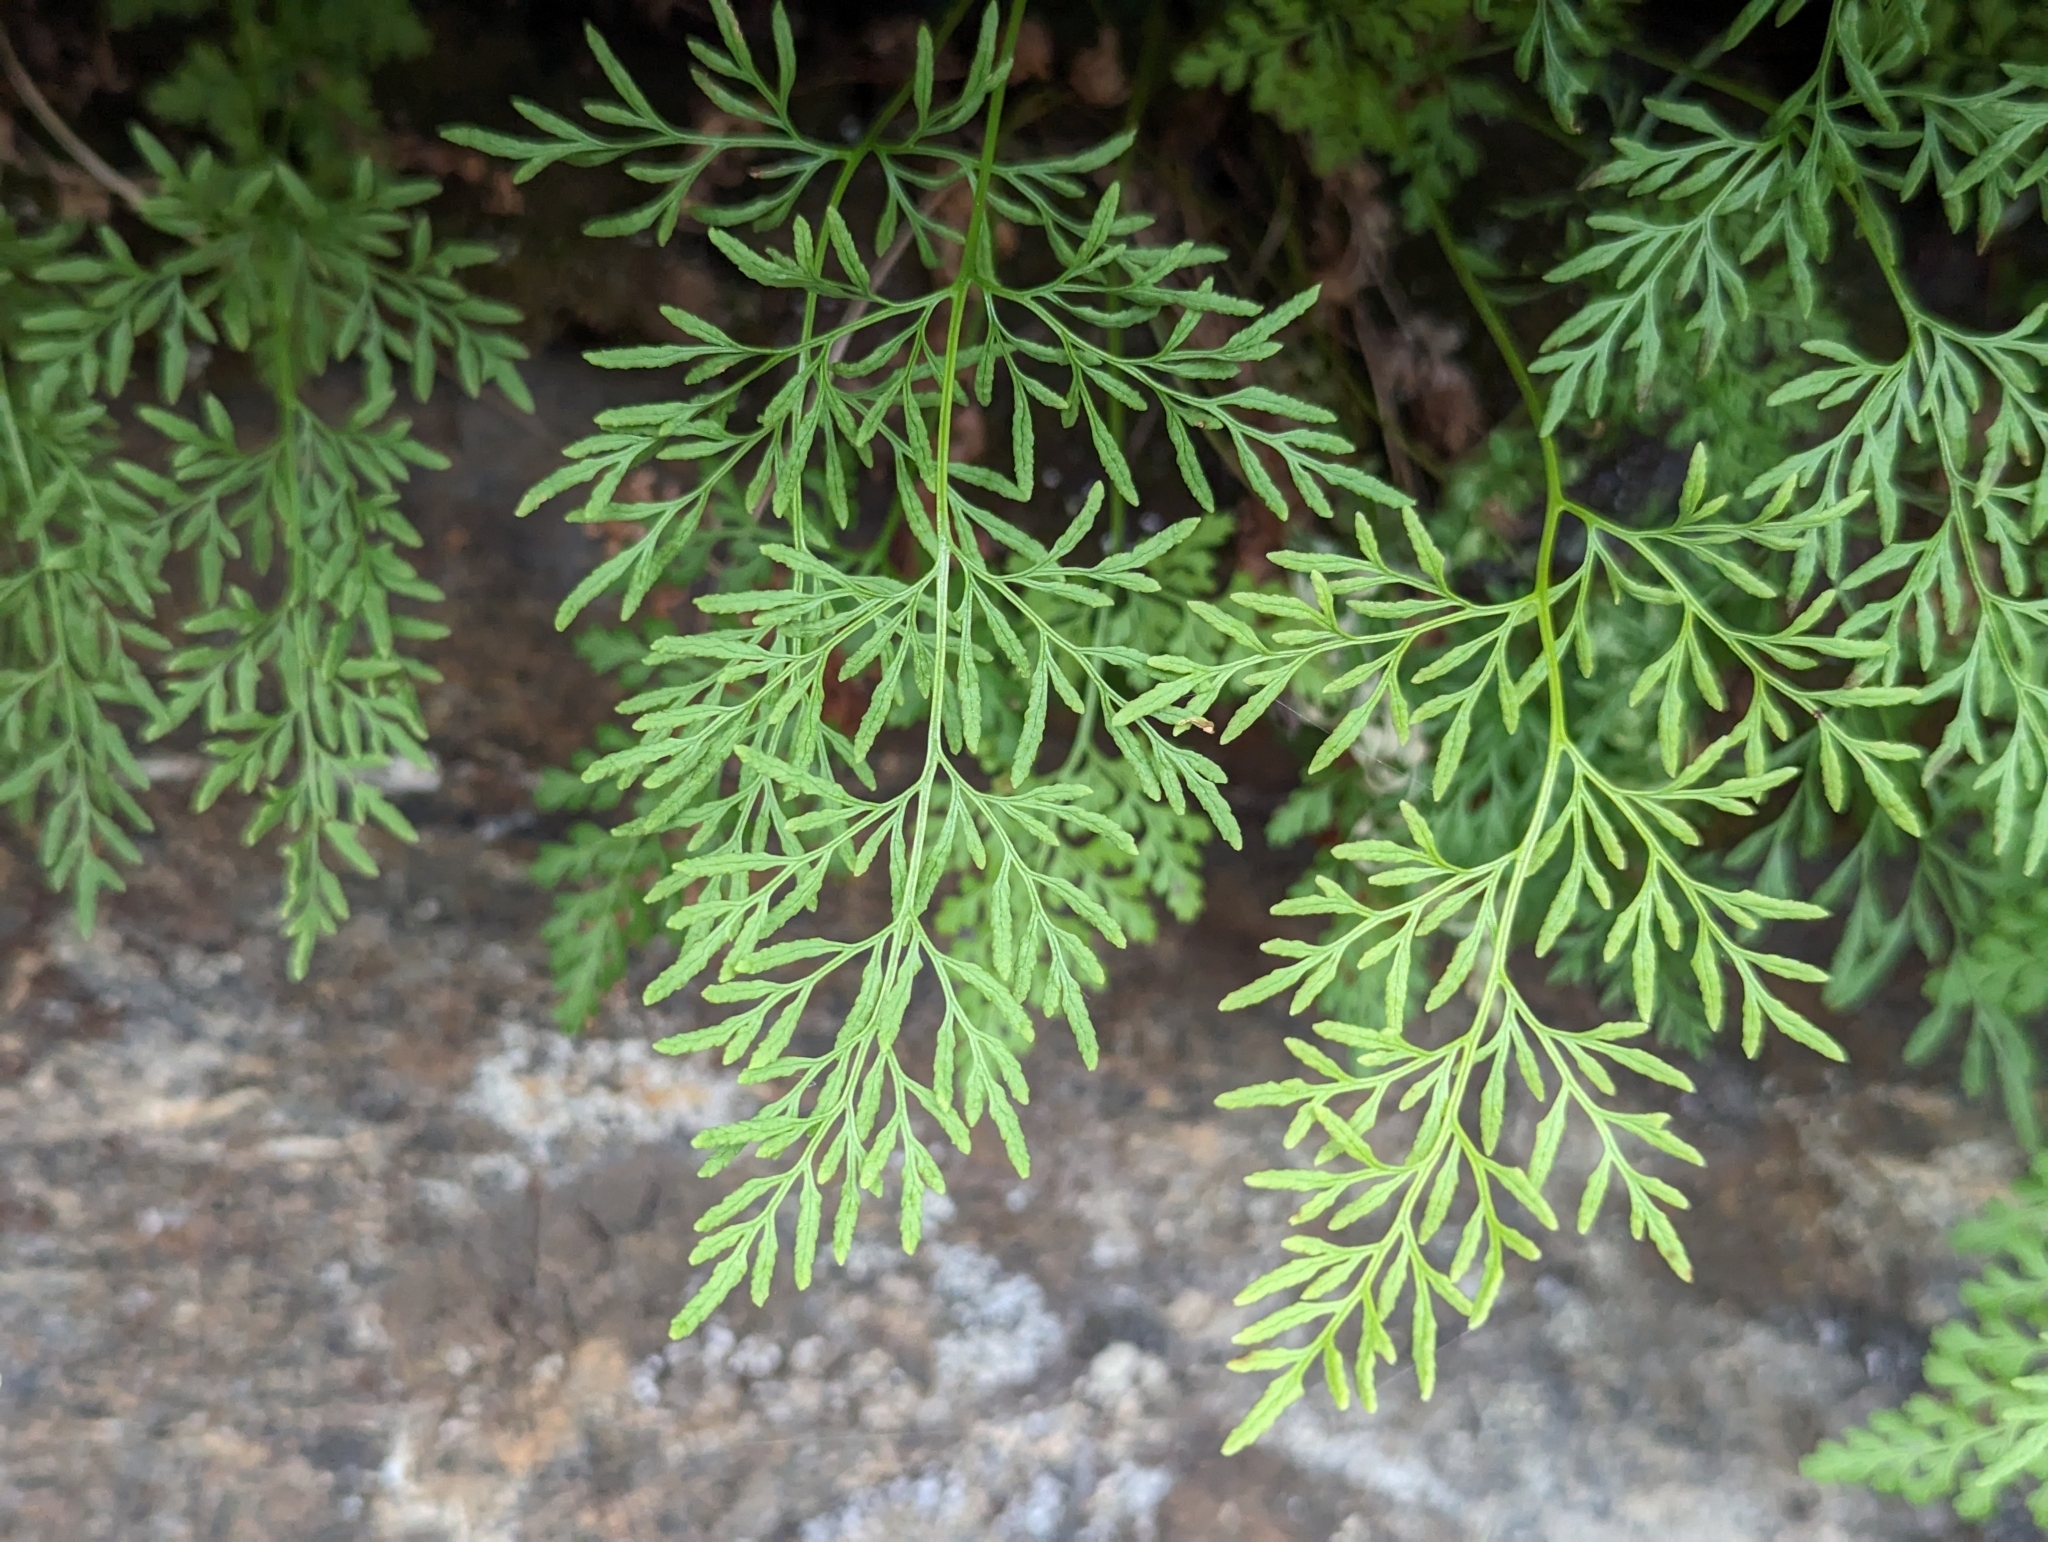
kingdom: Plantae
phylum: Tracheophyta
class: Polypodiopsida
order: Polypodiales
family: Pteridaceae
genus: Cryptogramma
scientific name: Cryptogramma crispa
